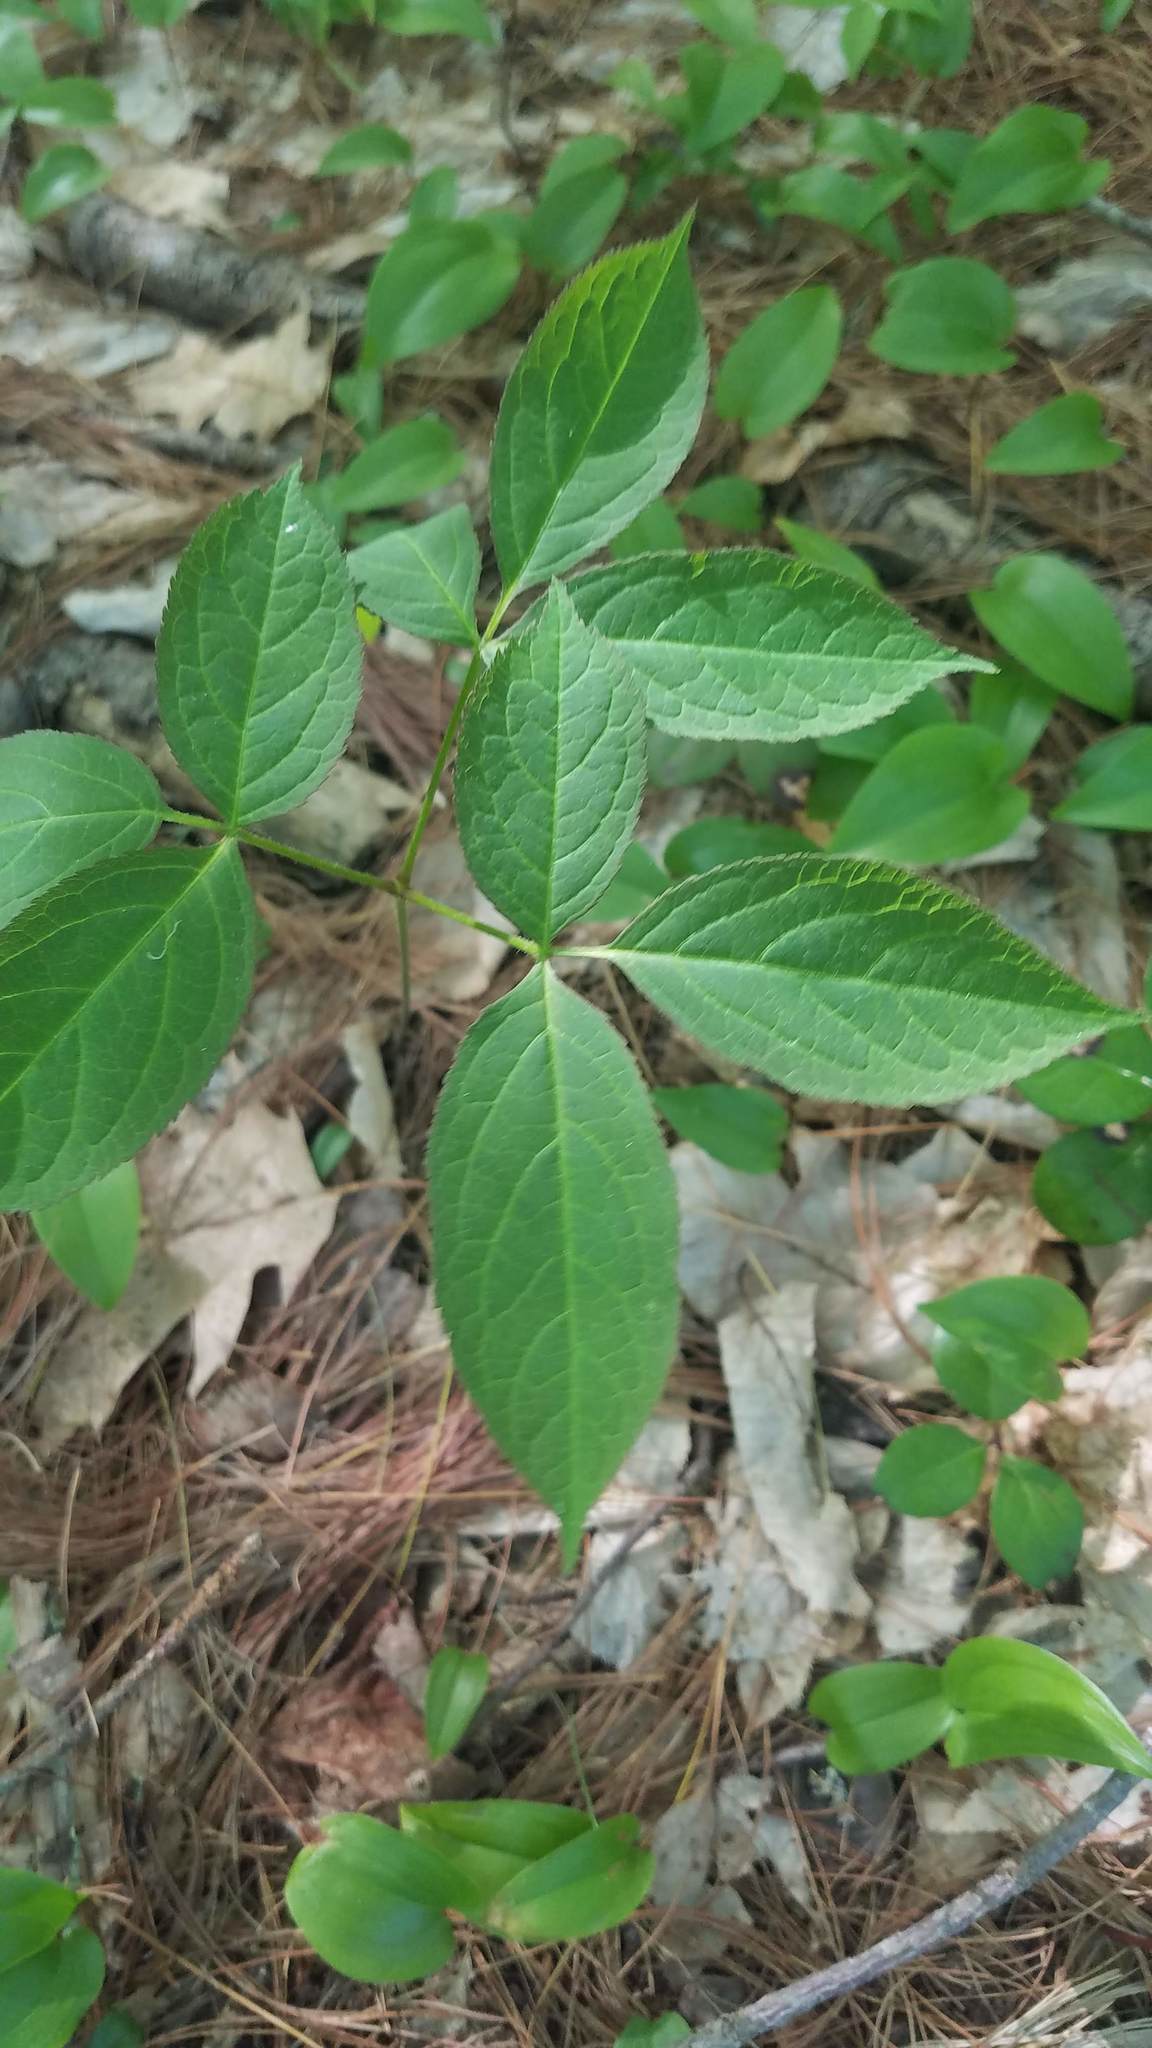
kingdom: Plantae
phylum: Tracheophyta
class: Magnoliopsida
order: Apiales
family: Araliaceae
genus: Aralia
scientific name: Aralia nudicaulis
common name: Wild sarsaparilla
